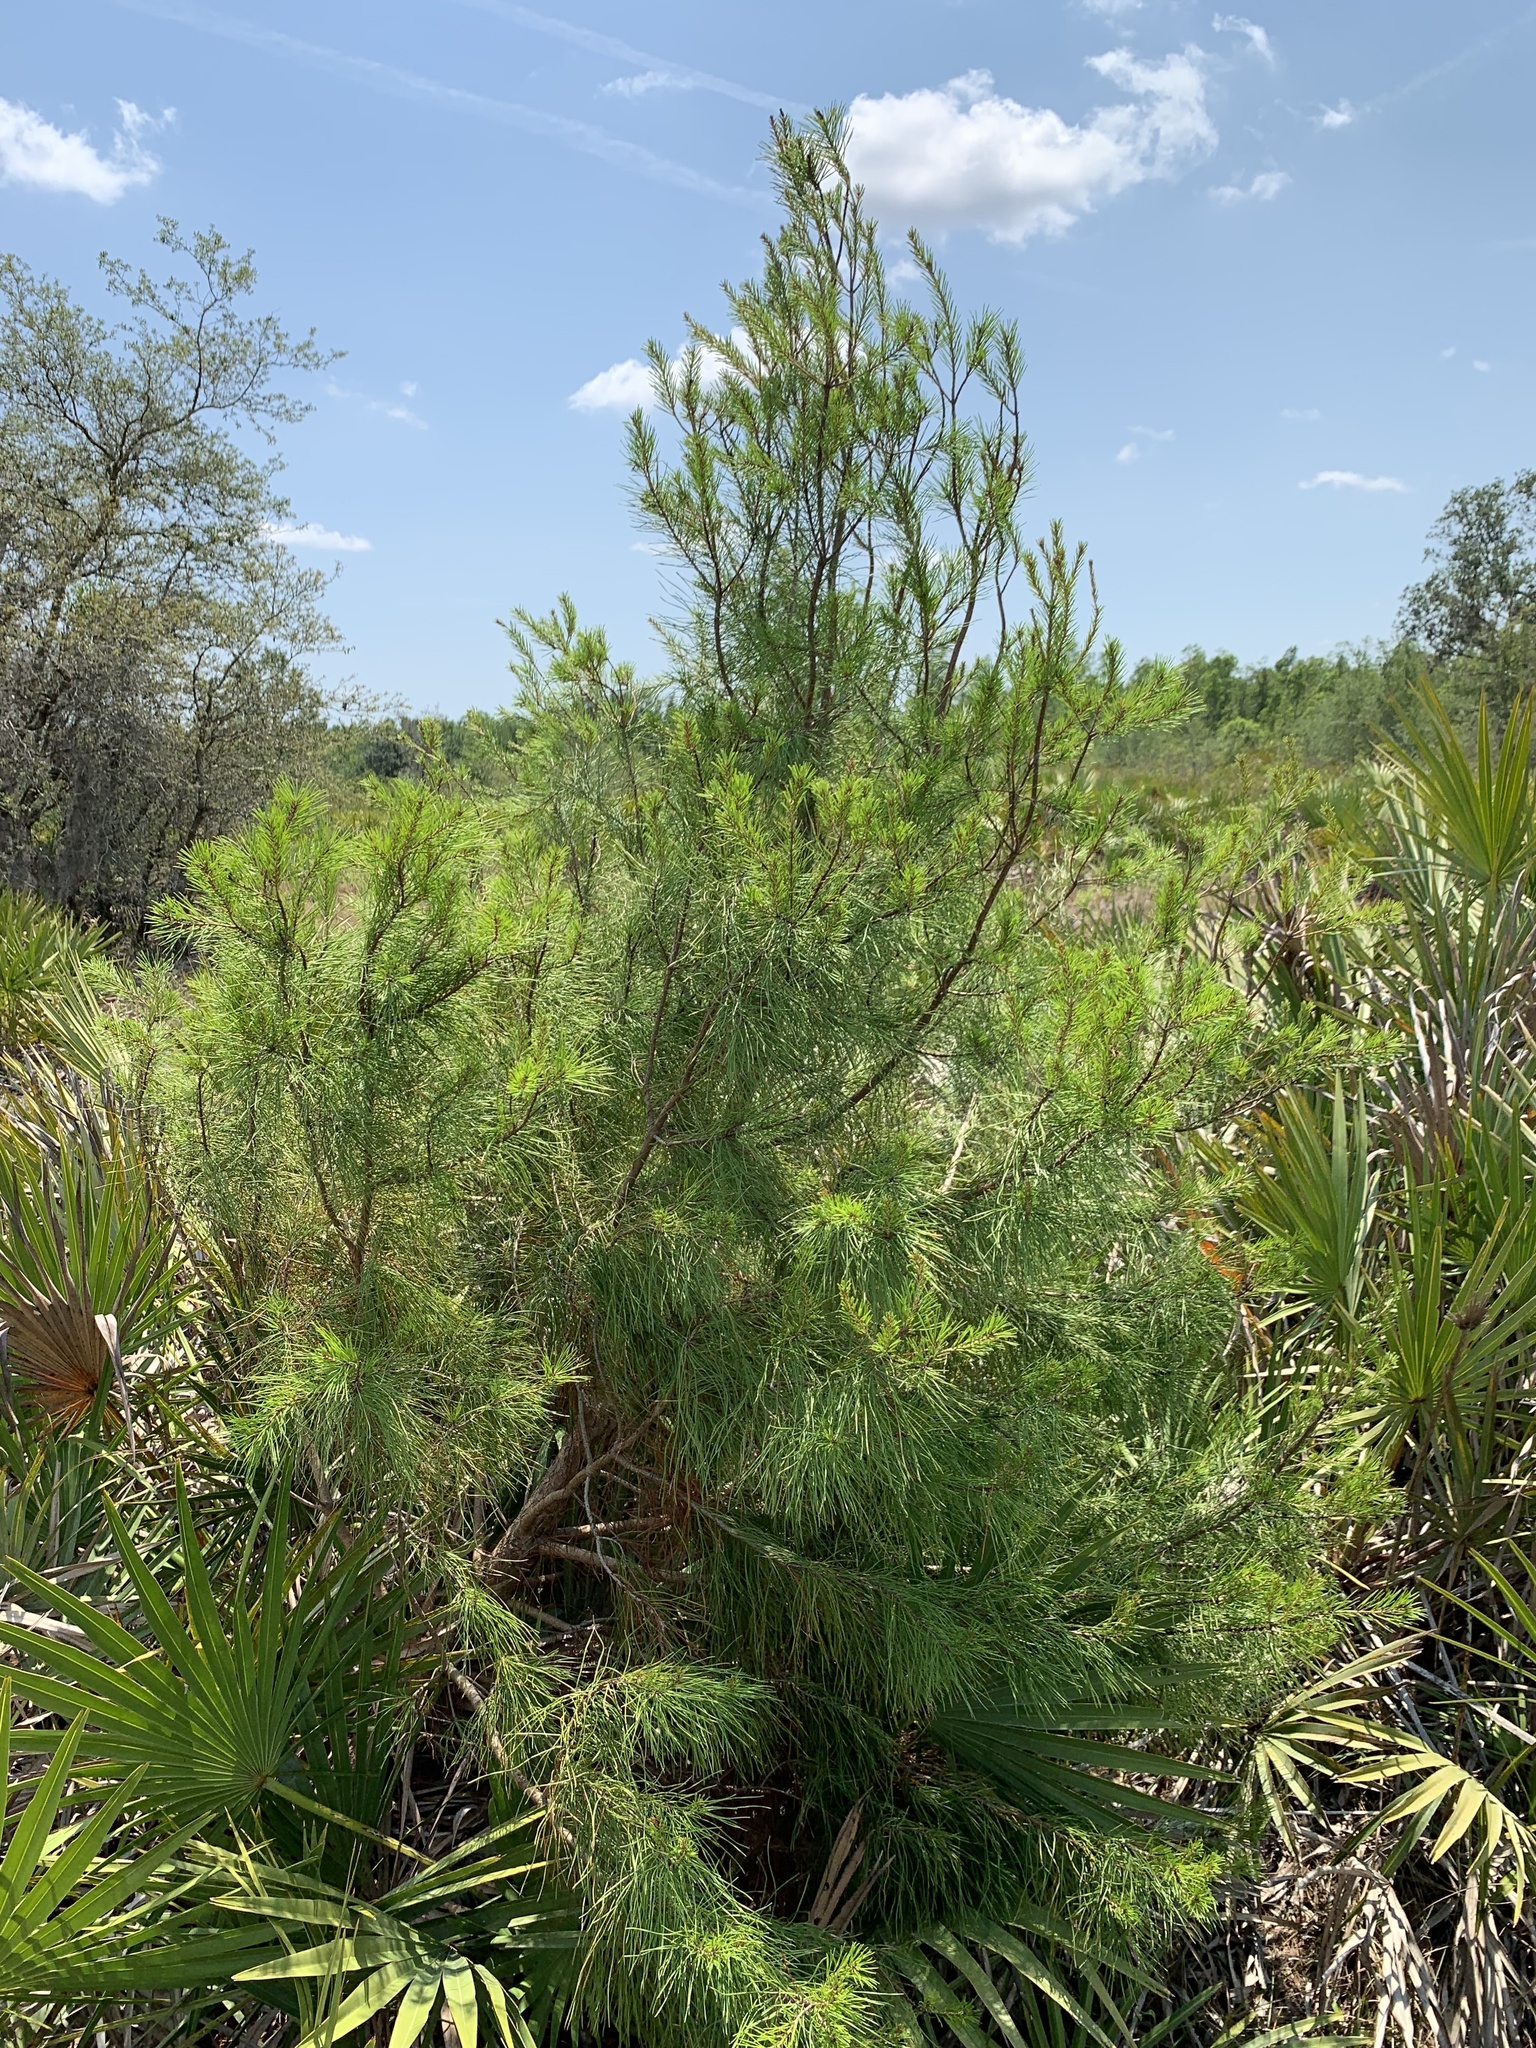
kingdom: Plantae
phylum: Tracheophyta
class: Pinopsida
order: Pinales
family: Pinaceae
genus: Pinus
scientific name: Pinus clausa
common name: Sand pine
